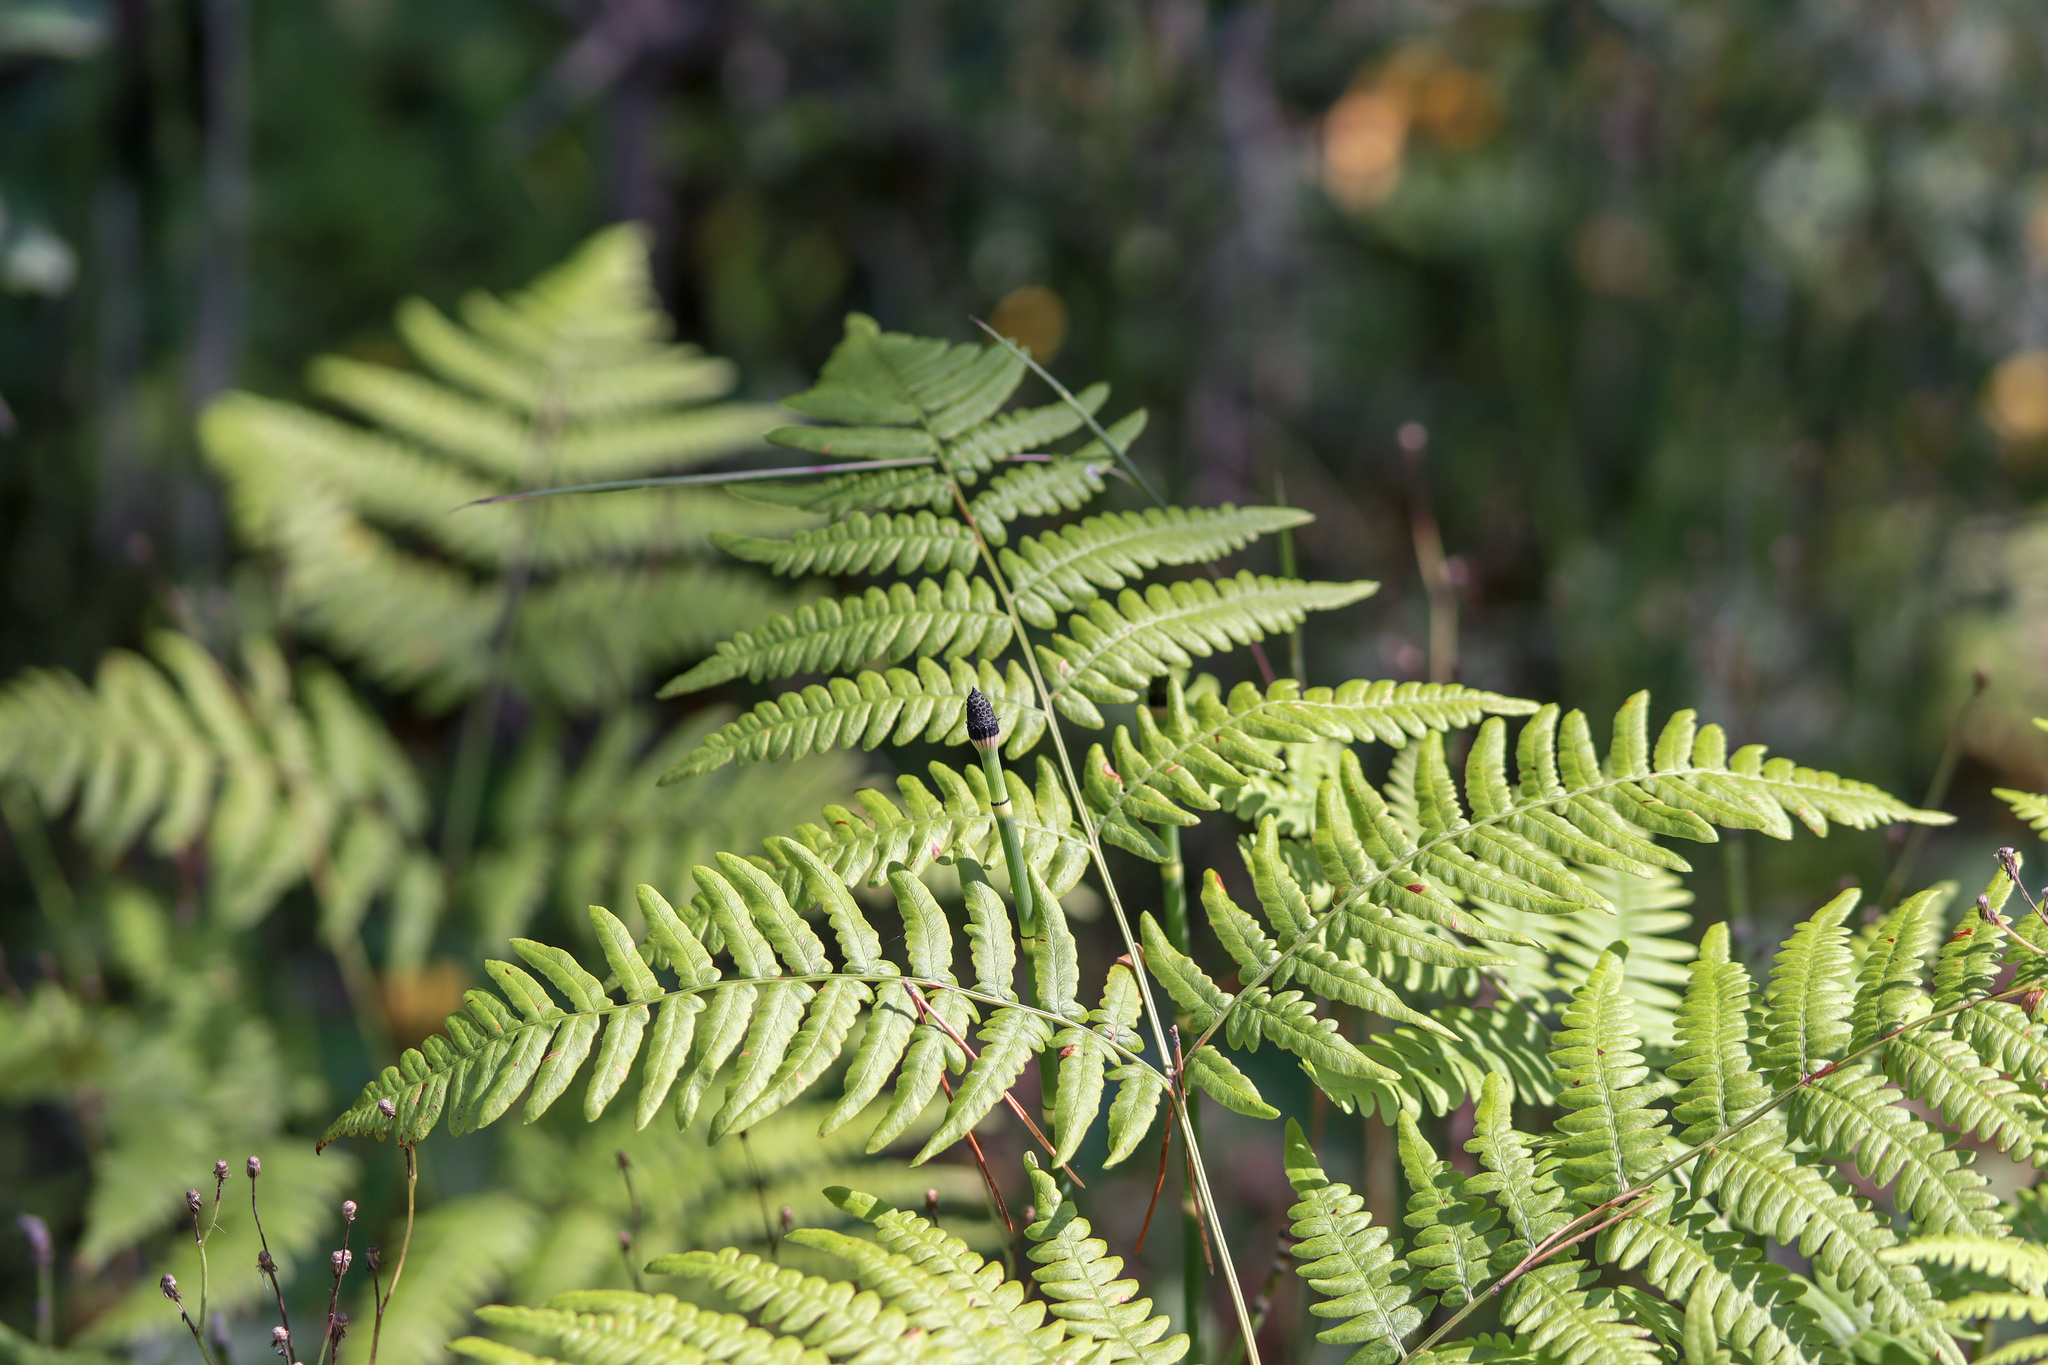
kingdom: Plantae
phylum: Tracheophyta
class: Polypodiopsida
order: Polypodiales
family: Dennstaedtiaceae
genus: Pteridium
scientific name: Pteridium aquilinum
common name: Bracken
